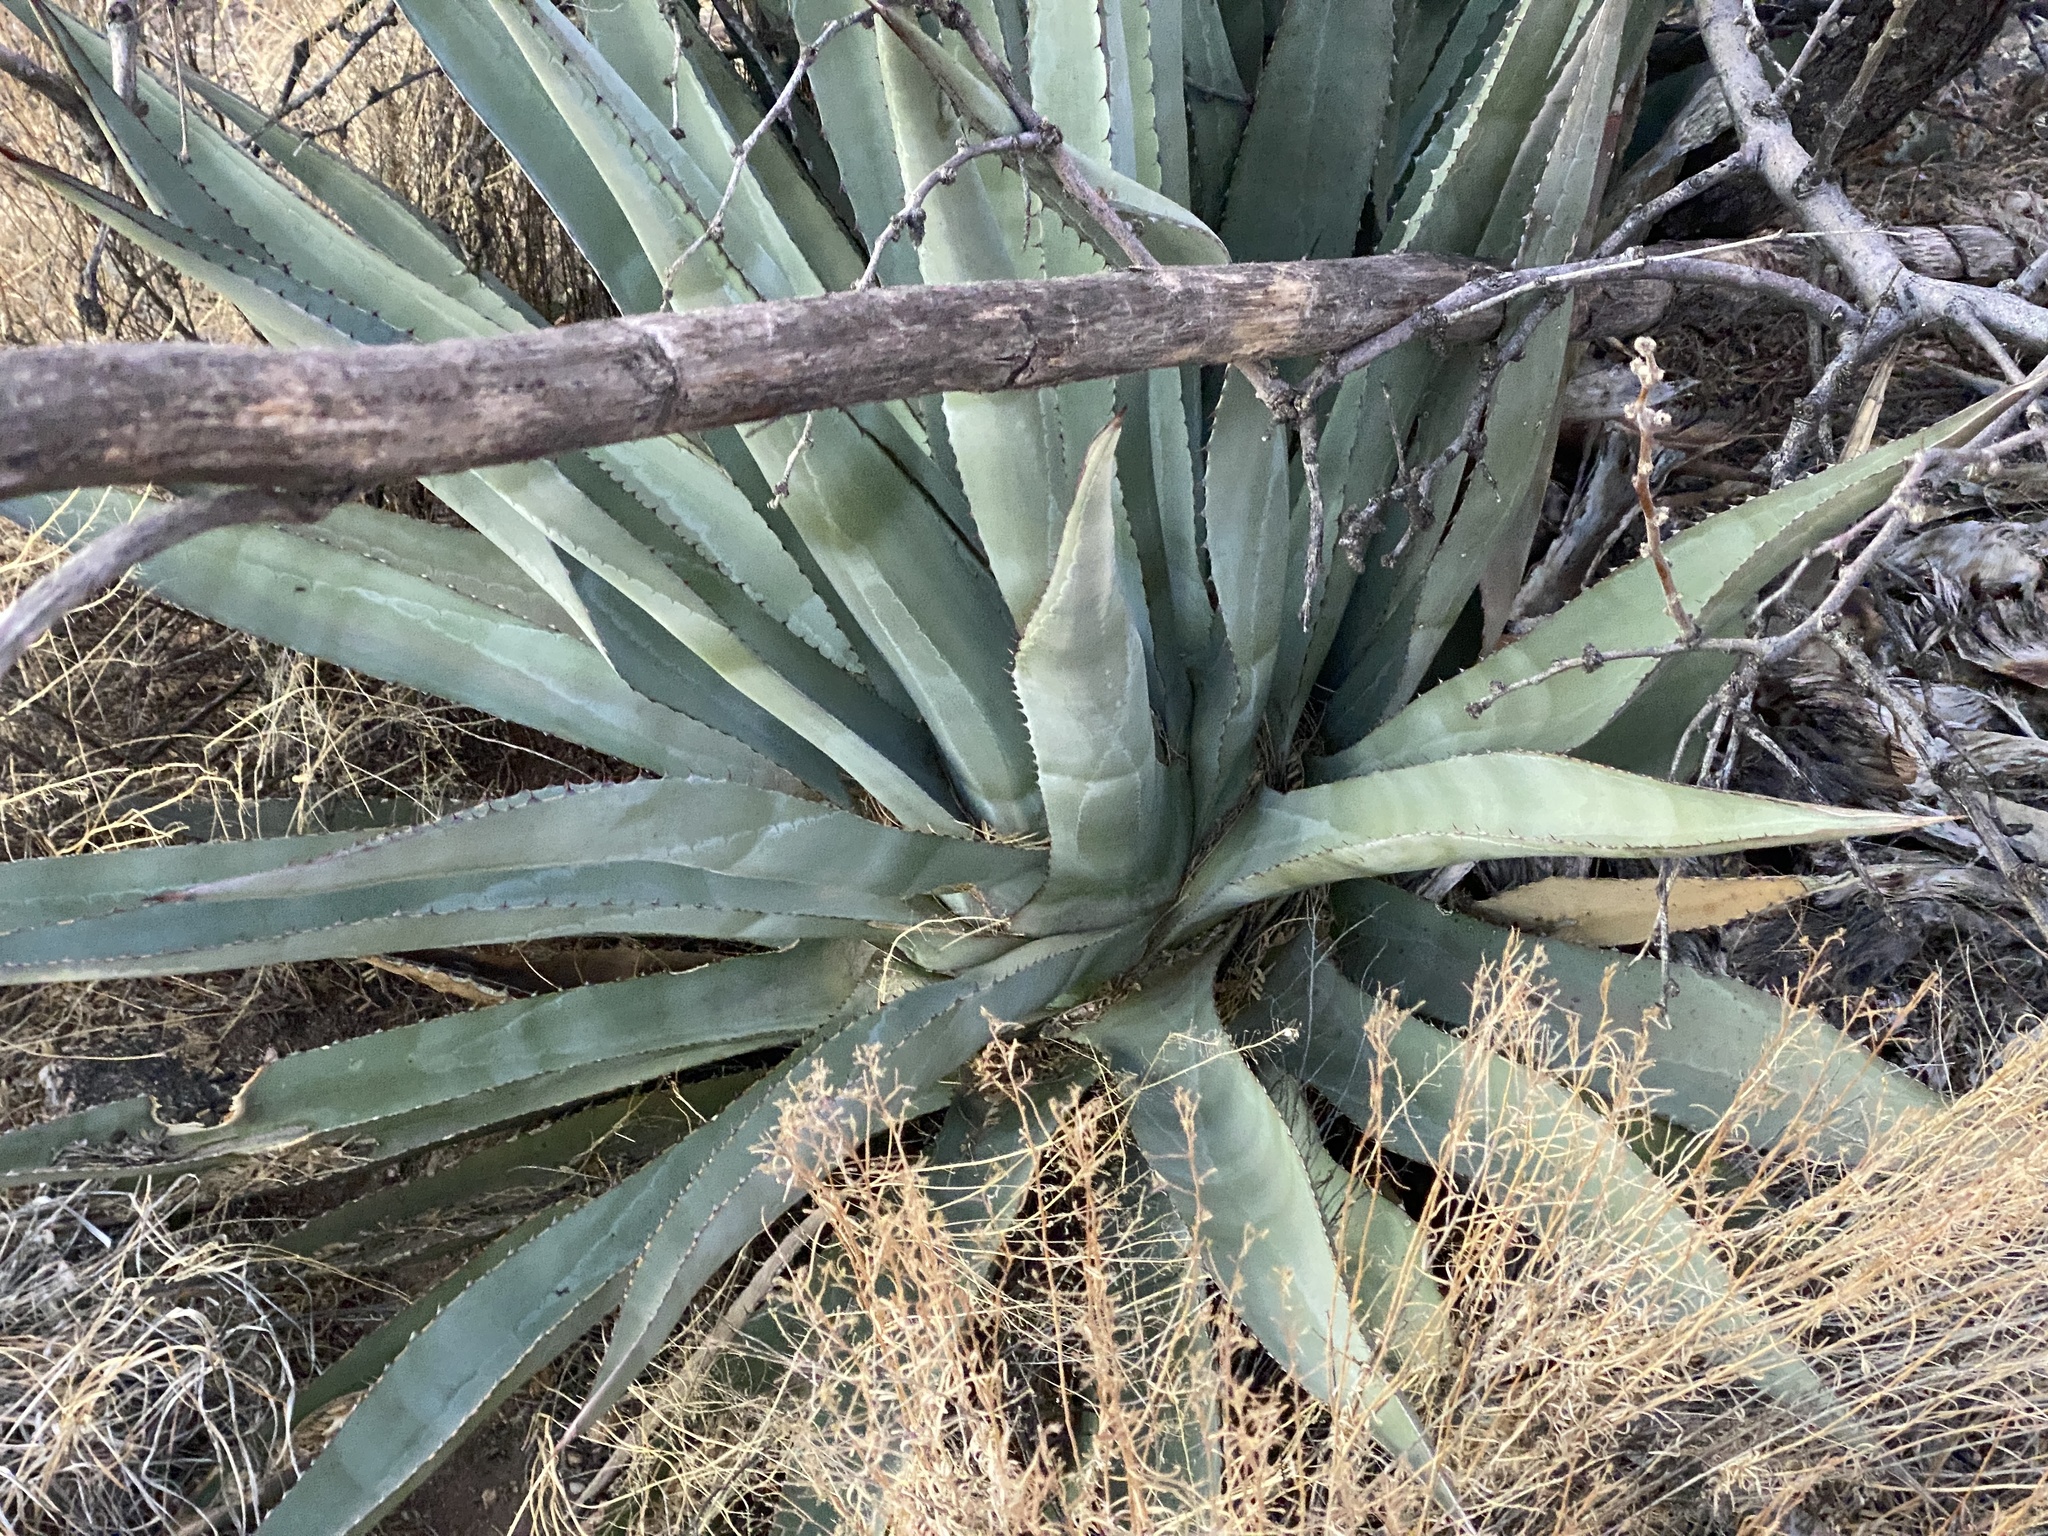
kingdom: Plantae
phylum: Tracheophyta
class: Liliopsida
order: Asparagales
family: Asparagaceae
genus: Agave
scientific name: Agave palmeri
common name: Palmer agave
